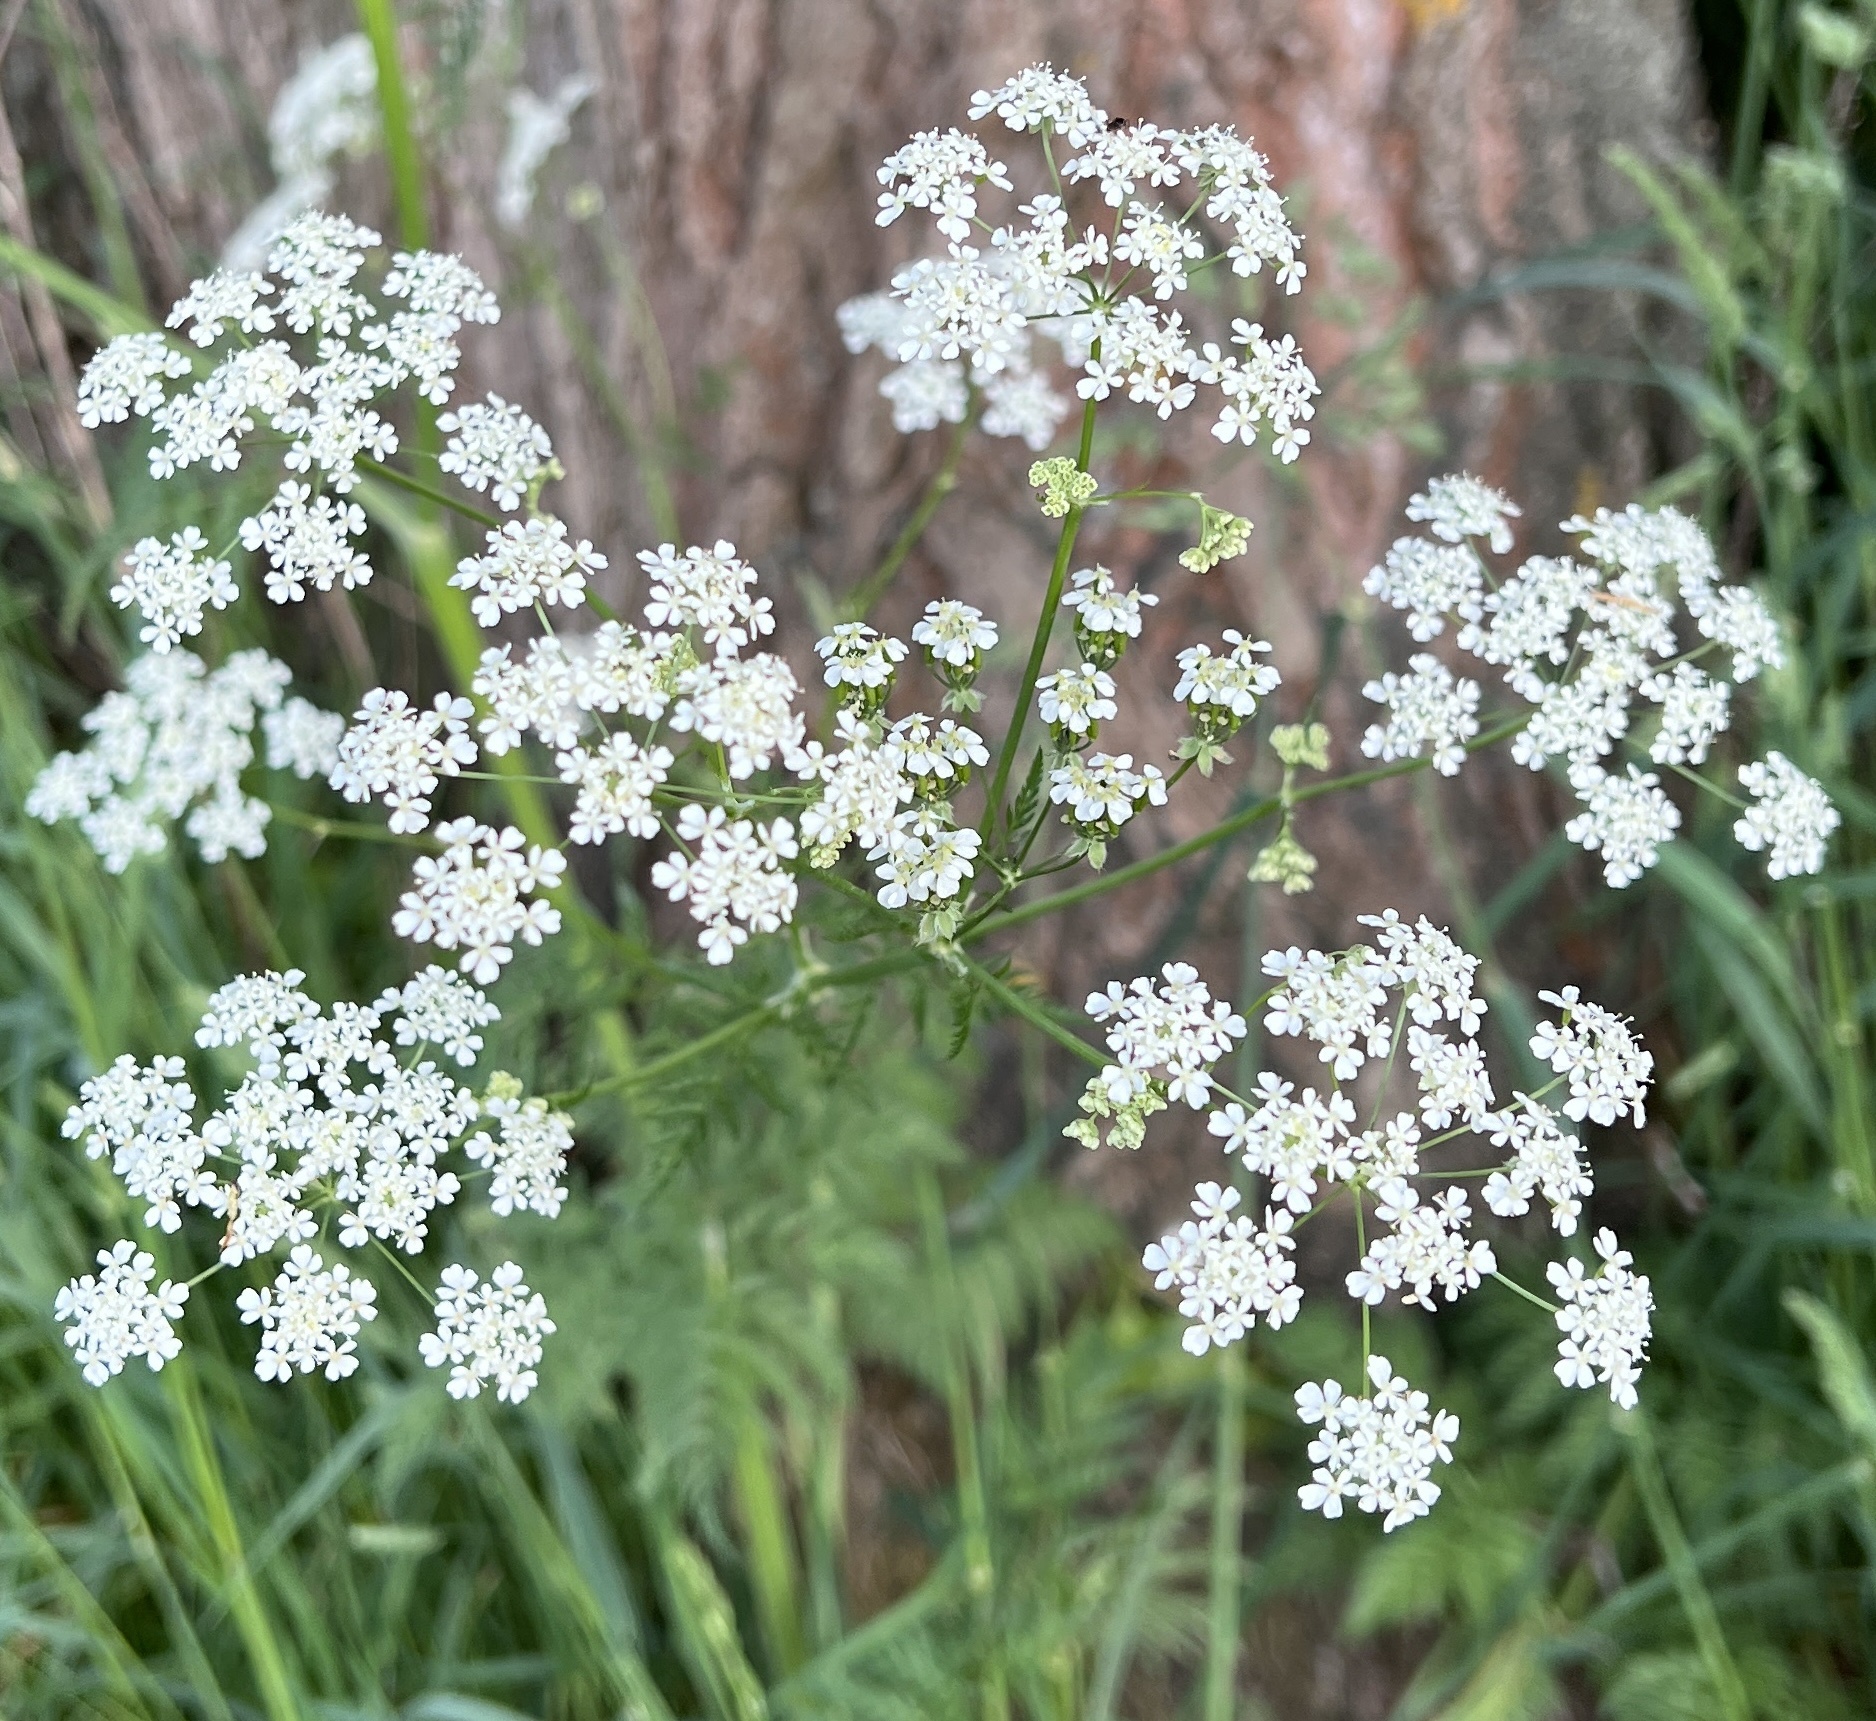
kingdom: Plantae
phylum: Tracheophyta
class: Magnoliopsida
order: Apiales
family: Apiaceae
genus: Anthriscus
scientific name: Anthriscus sylvestris
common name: Cow parsley
